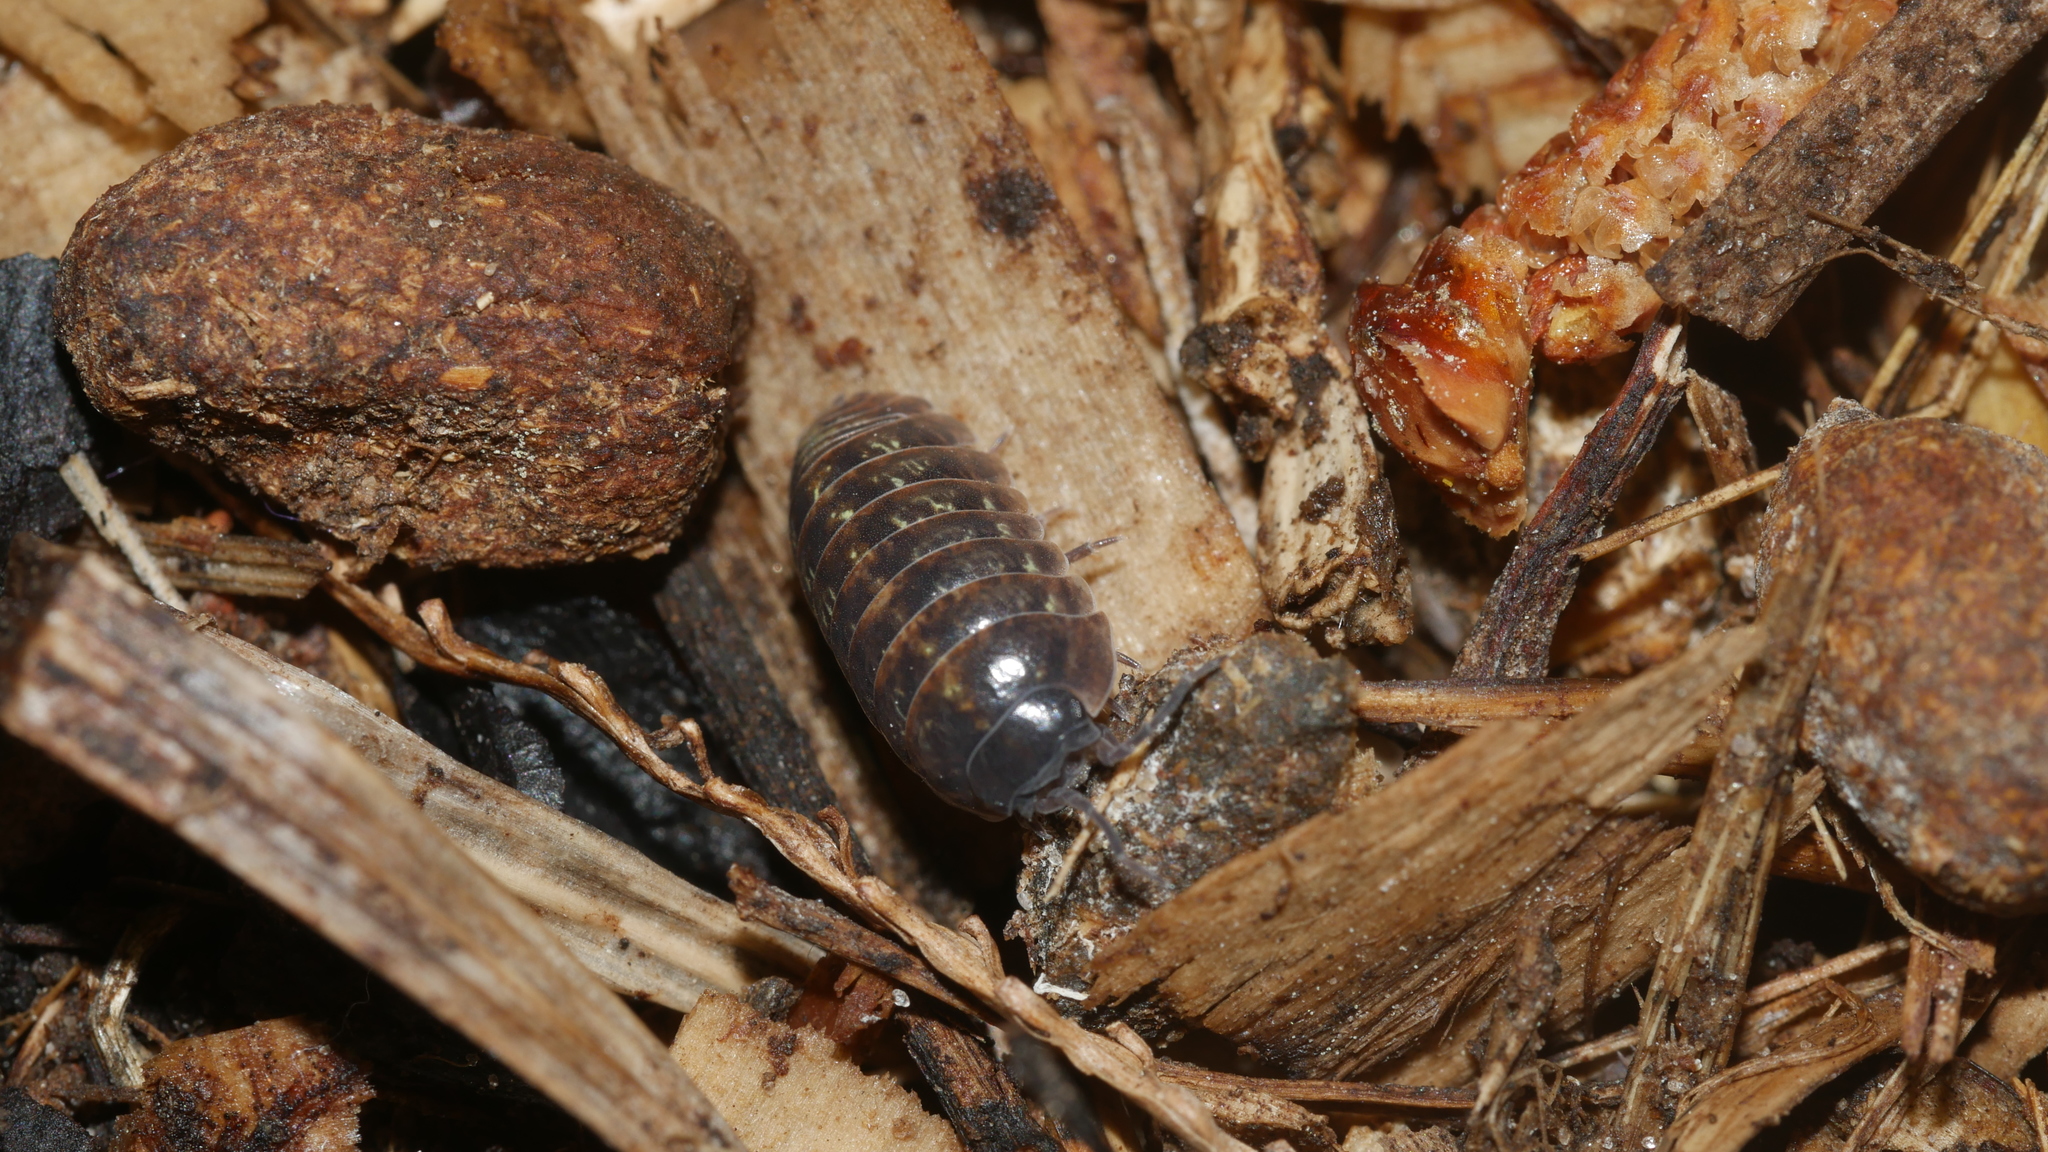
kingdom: Animalia
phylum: Arthropoda
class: Malacostraca
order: Isopoda
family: Armadillidiidae
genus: Armadillidium
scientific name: Armadillidium vulgare
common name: Common pill woodlouse
